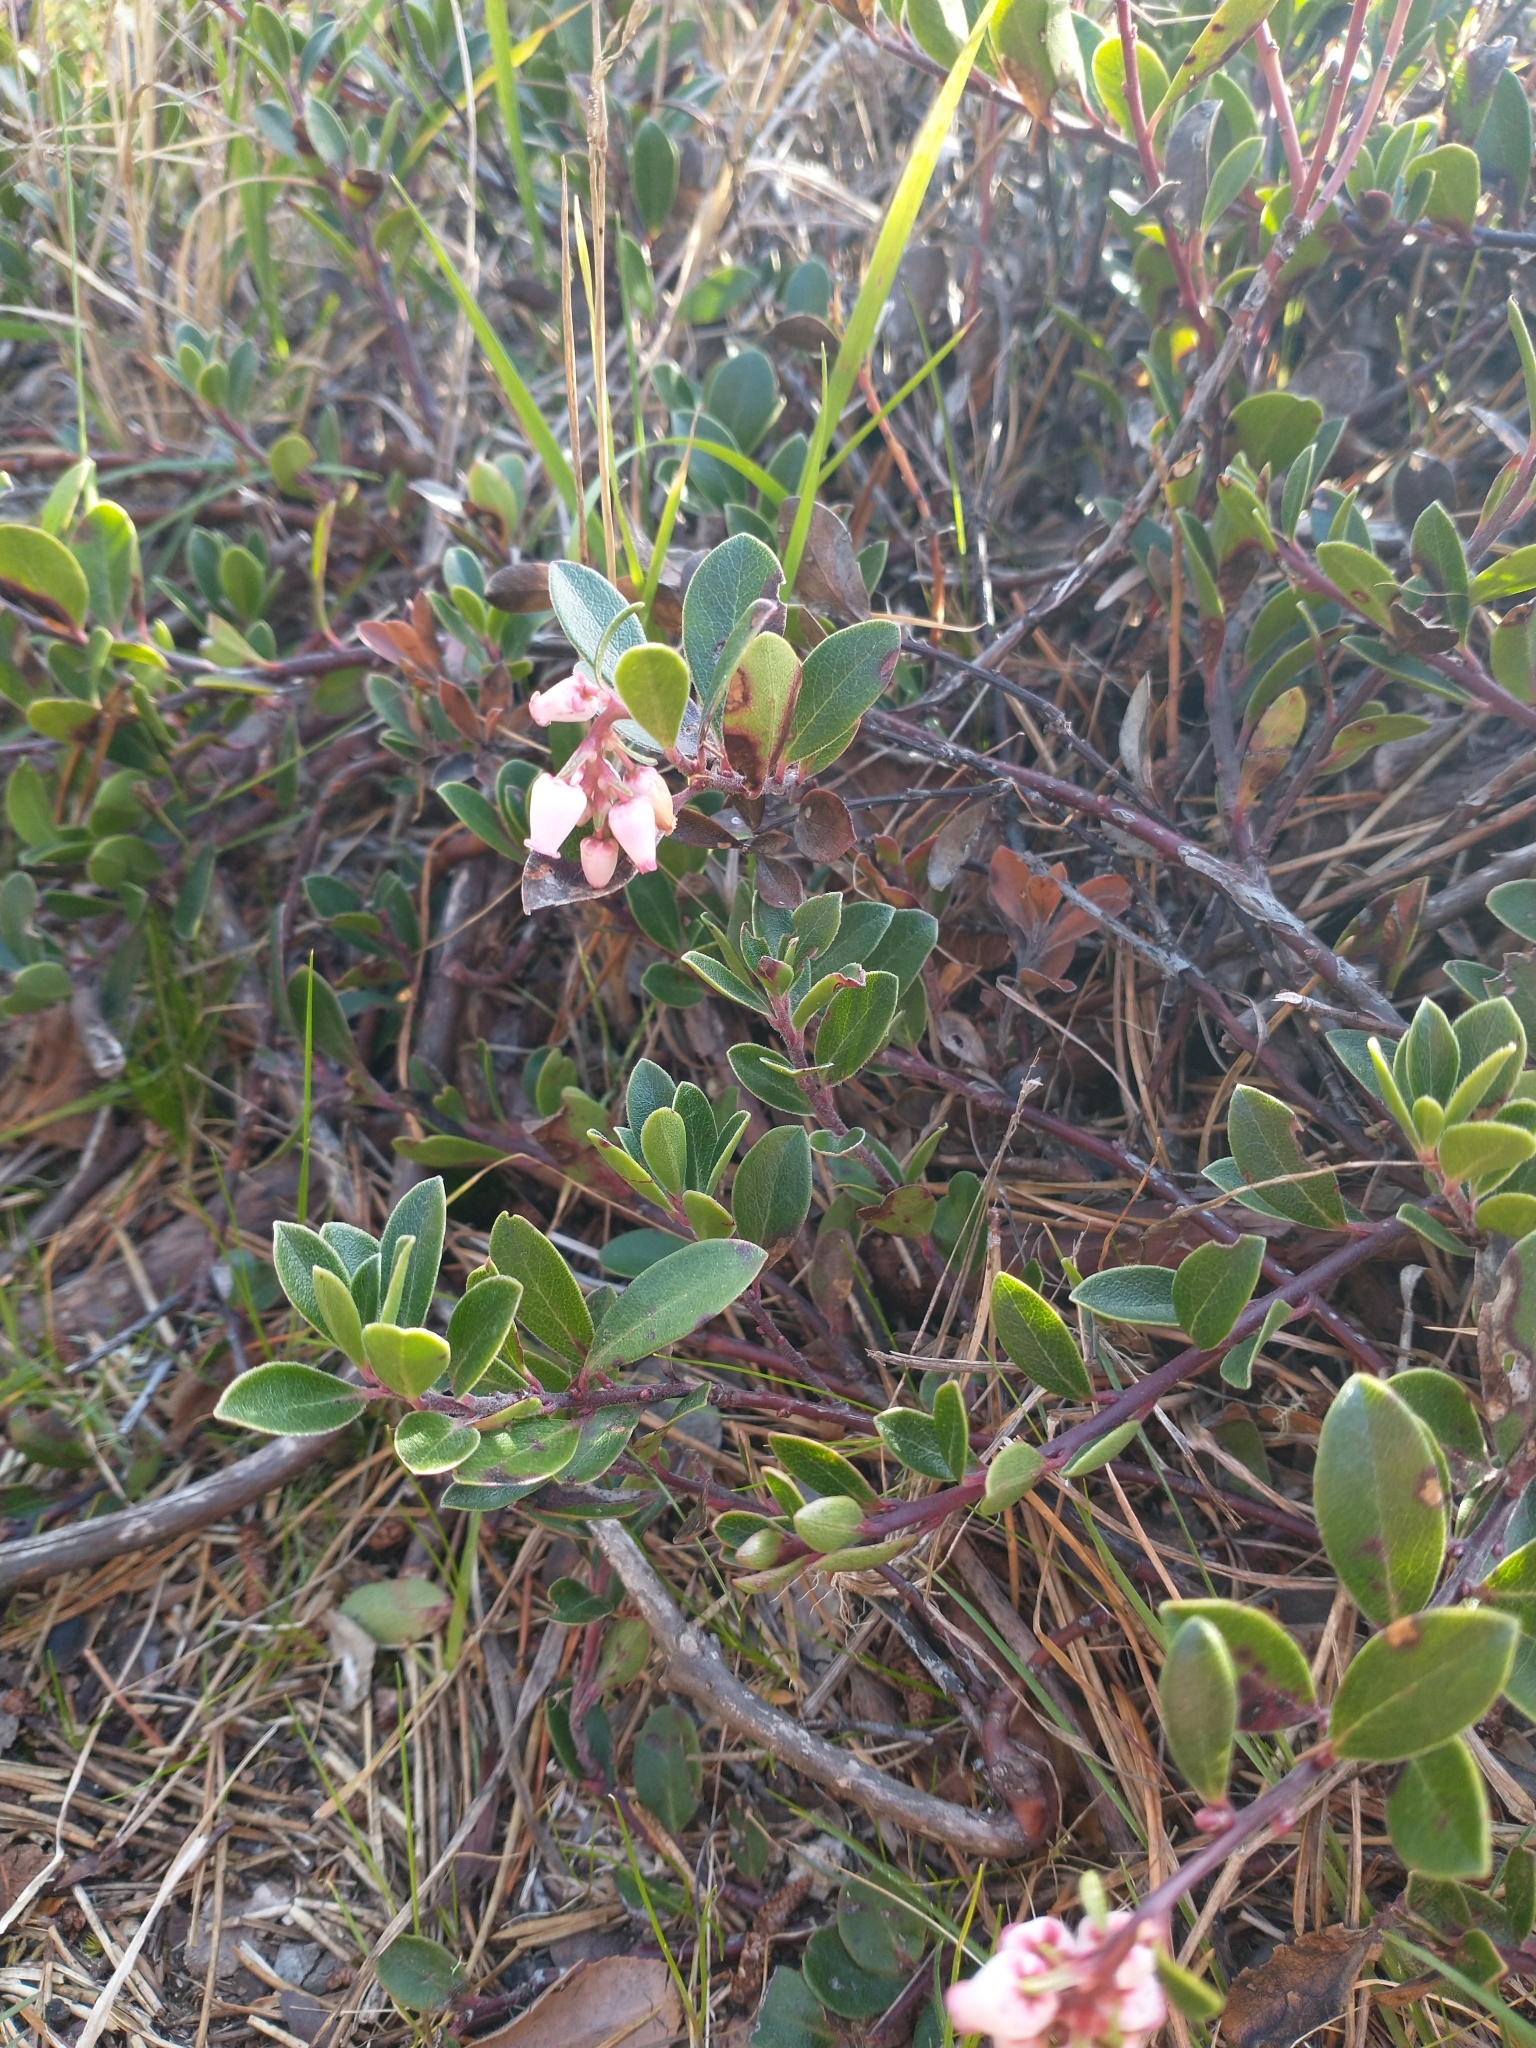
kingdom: Plantae
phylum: Tracheophyta
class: Magnoliopsida
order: Ericales
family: Ericaceae
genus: Arctostaphylos
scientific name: Arctostaphylos media
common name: Hybrid manzanita
